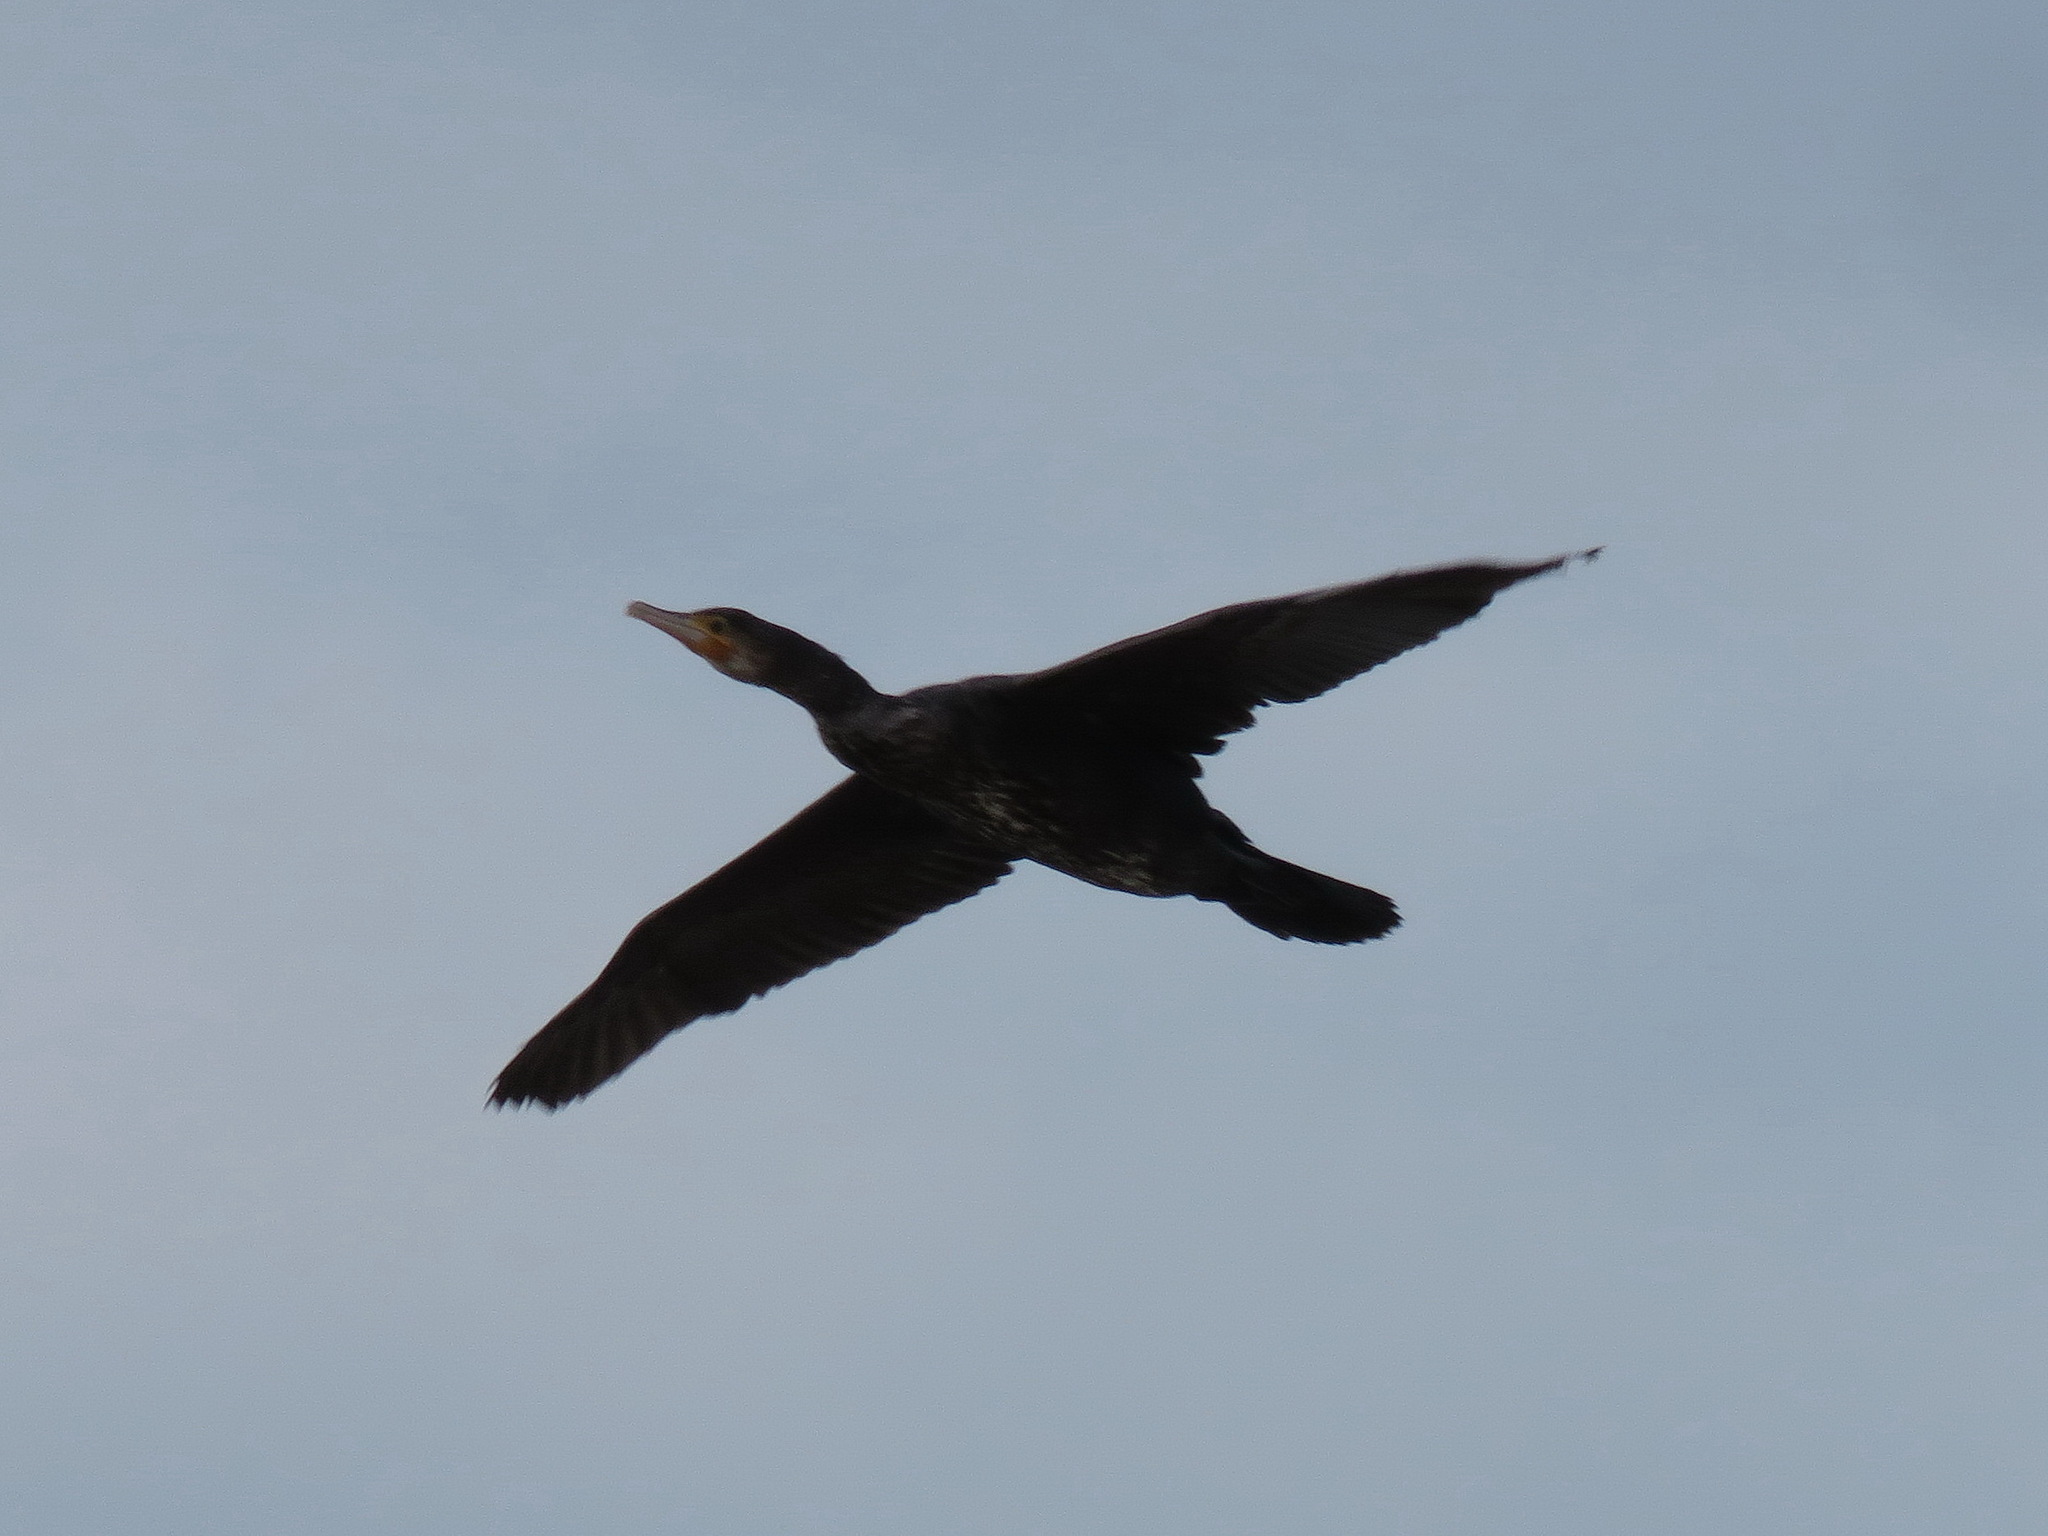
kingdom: Animalia
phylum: Chordata
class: Aves
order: Suliformes
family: Phalacrocoracidae
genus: Phalacrocorax
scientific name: Phalacrocorax carbo
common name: Great cormorant
